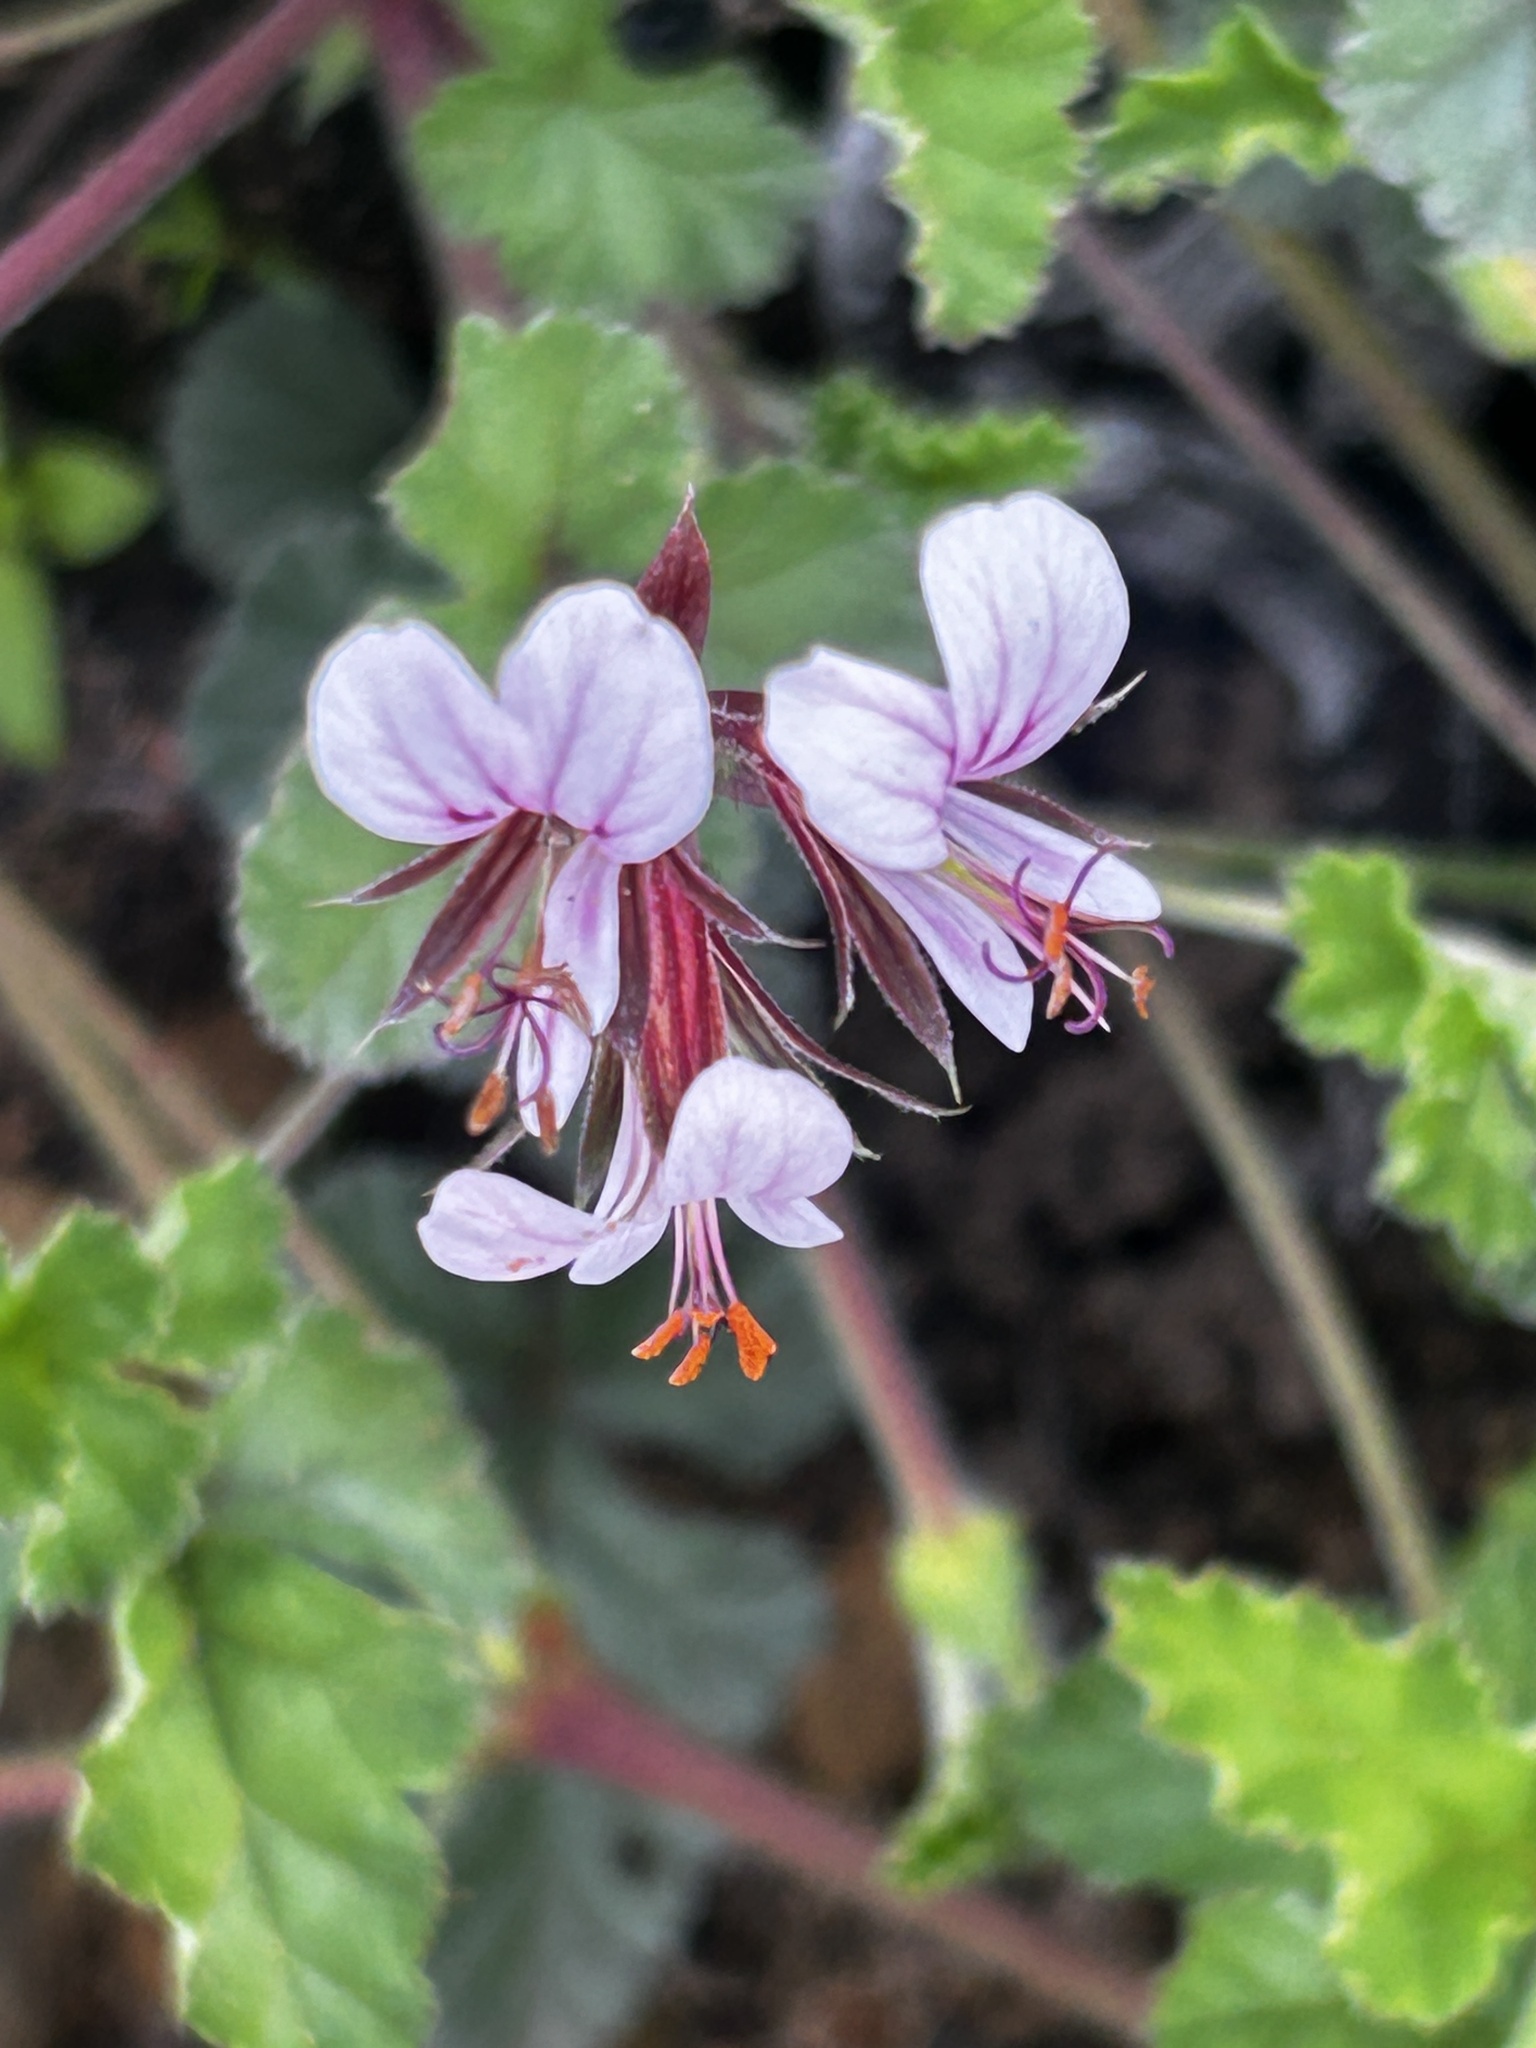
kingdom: Plantae
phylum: Tracheophyta
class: Magnoliopsida
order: Geraniales
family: Geraniaceae
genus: Pelargonium
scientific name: Pelargonium candicans
